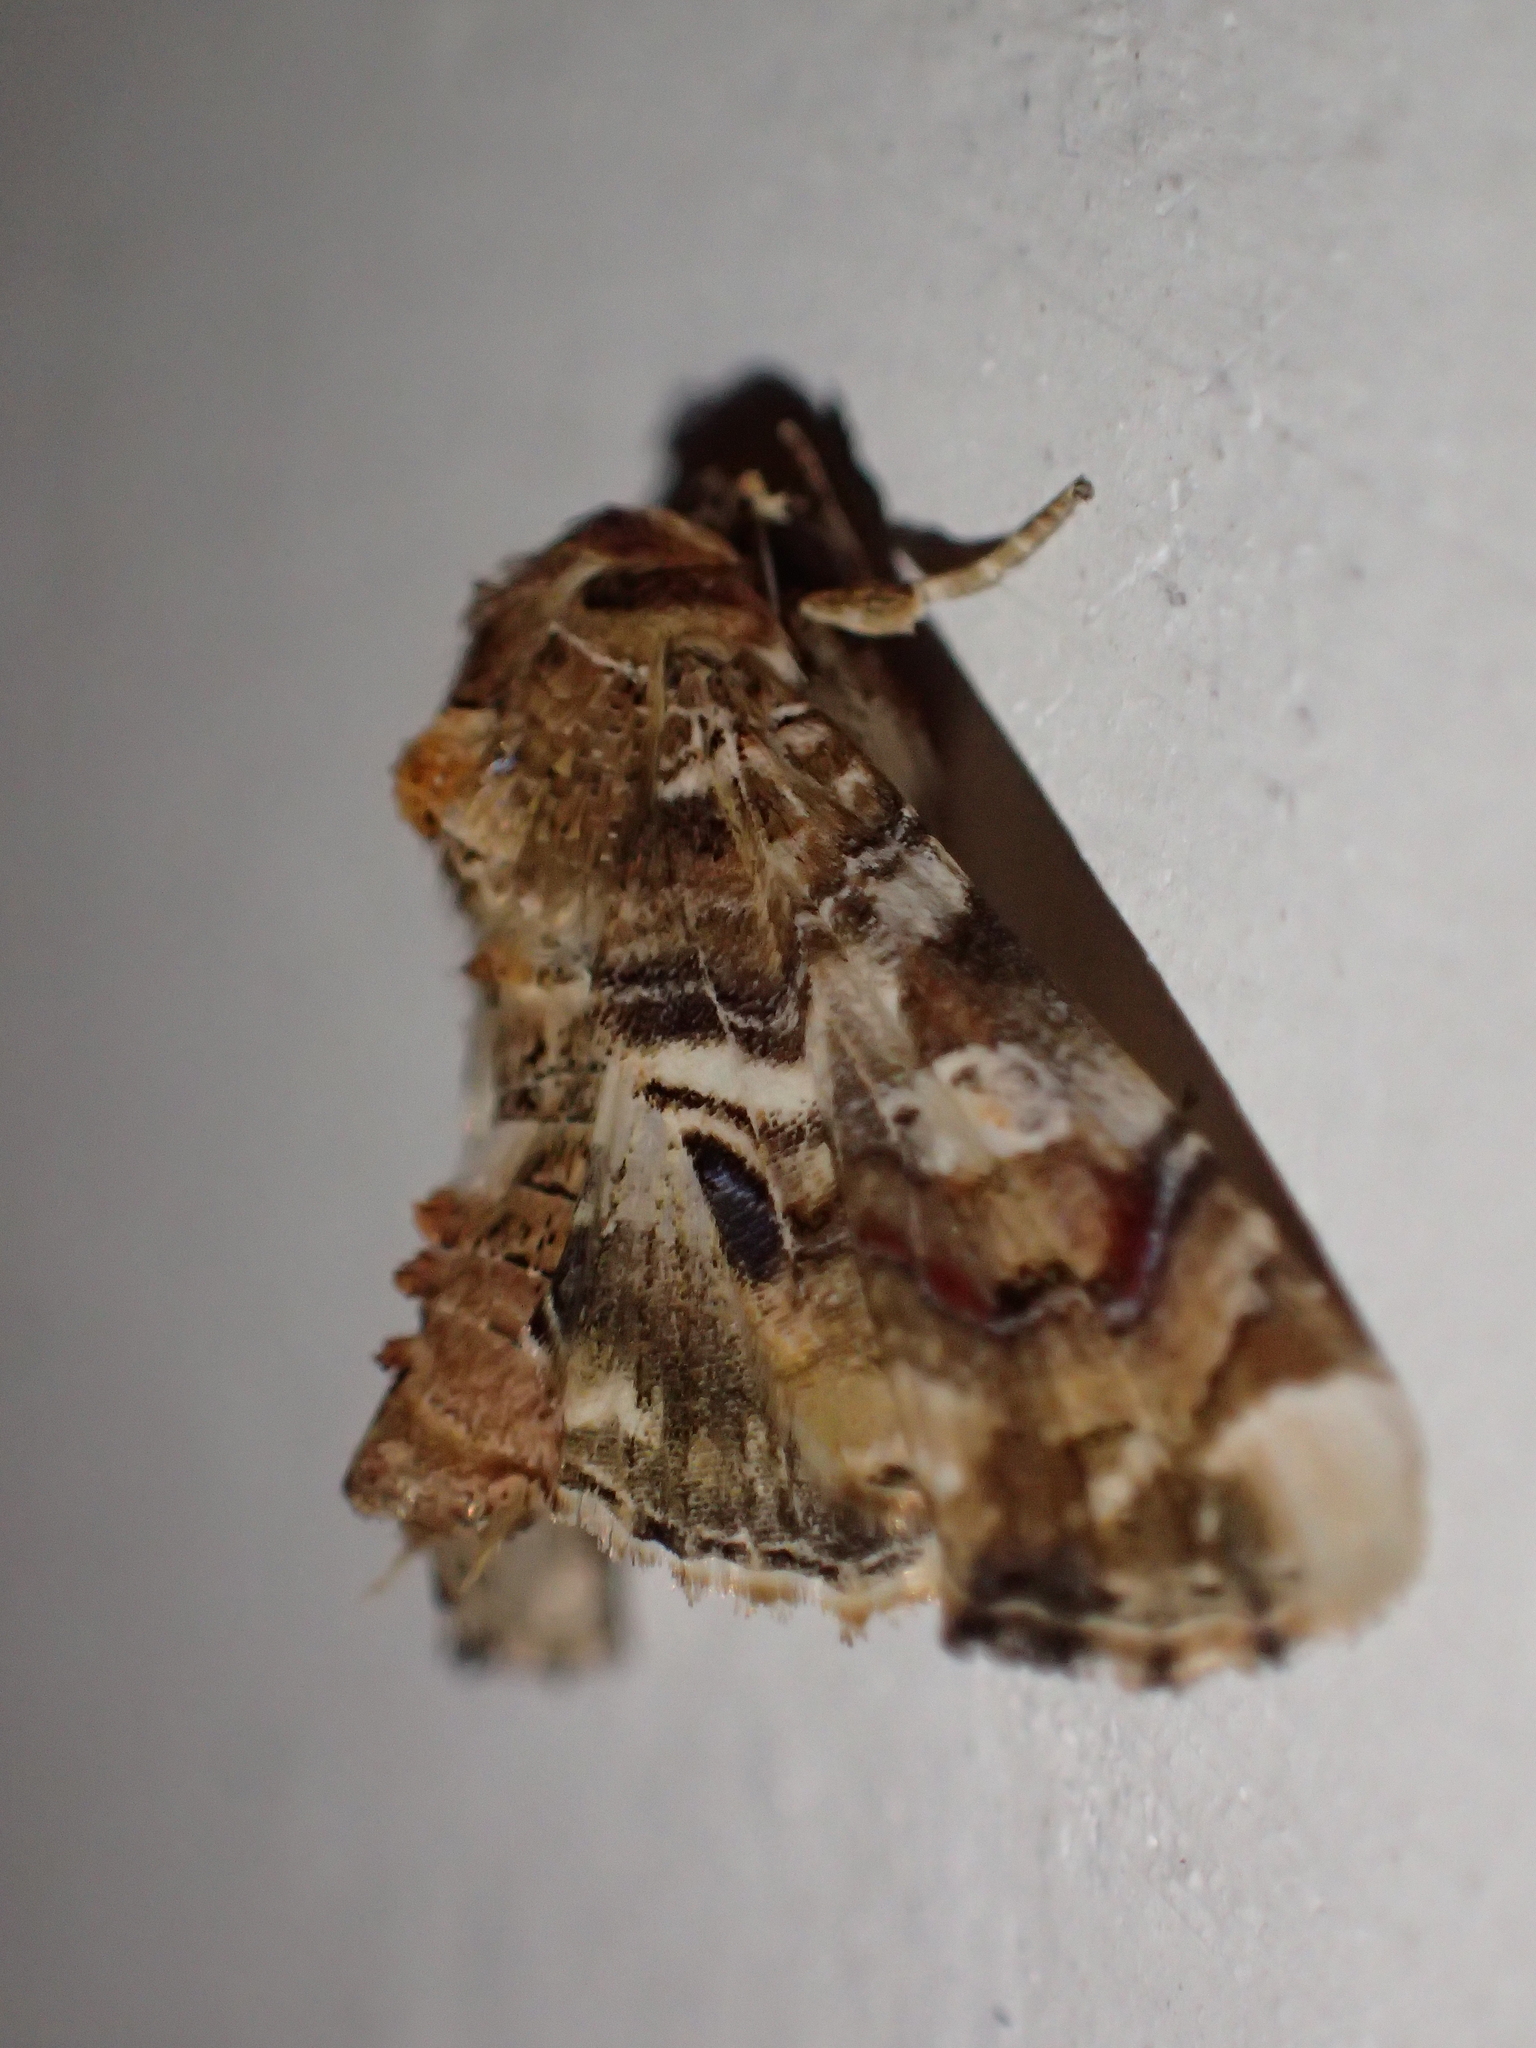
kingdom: Animalia
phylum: Arthropoda
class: Insecta
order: Lepidoptera
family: Euteliidae
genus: Eutelia
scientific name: Eutelia adulatrix
